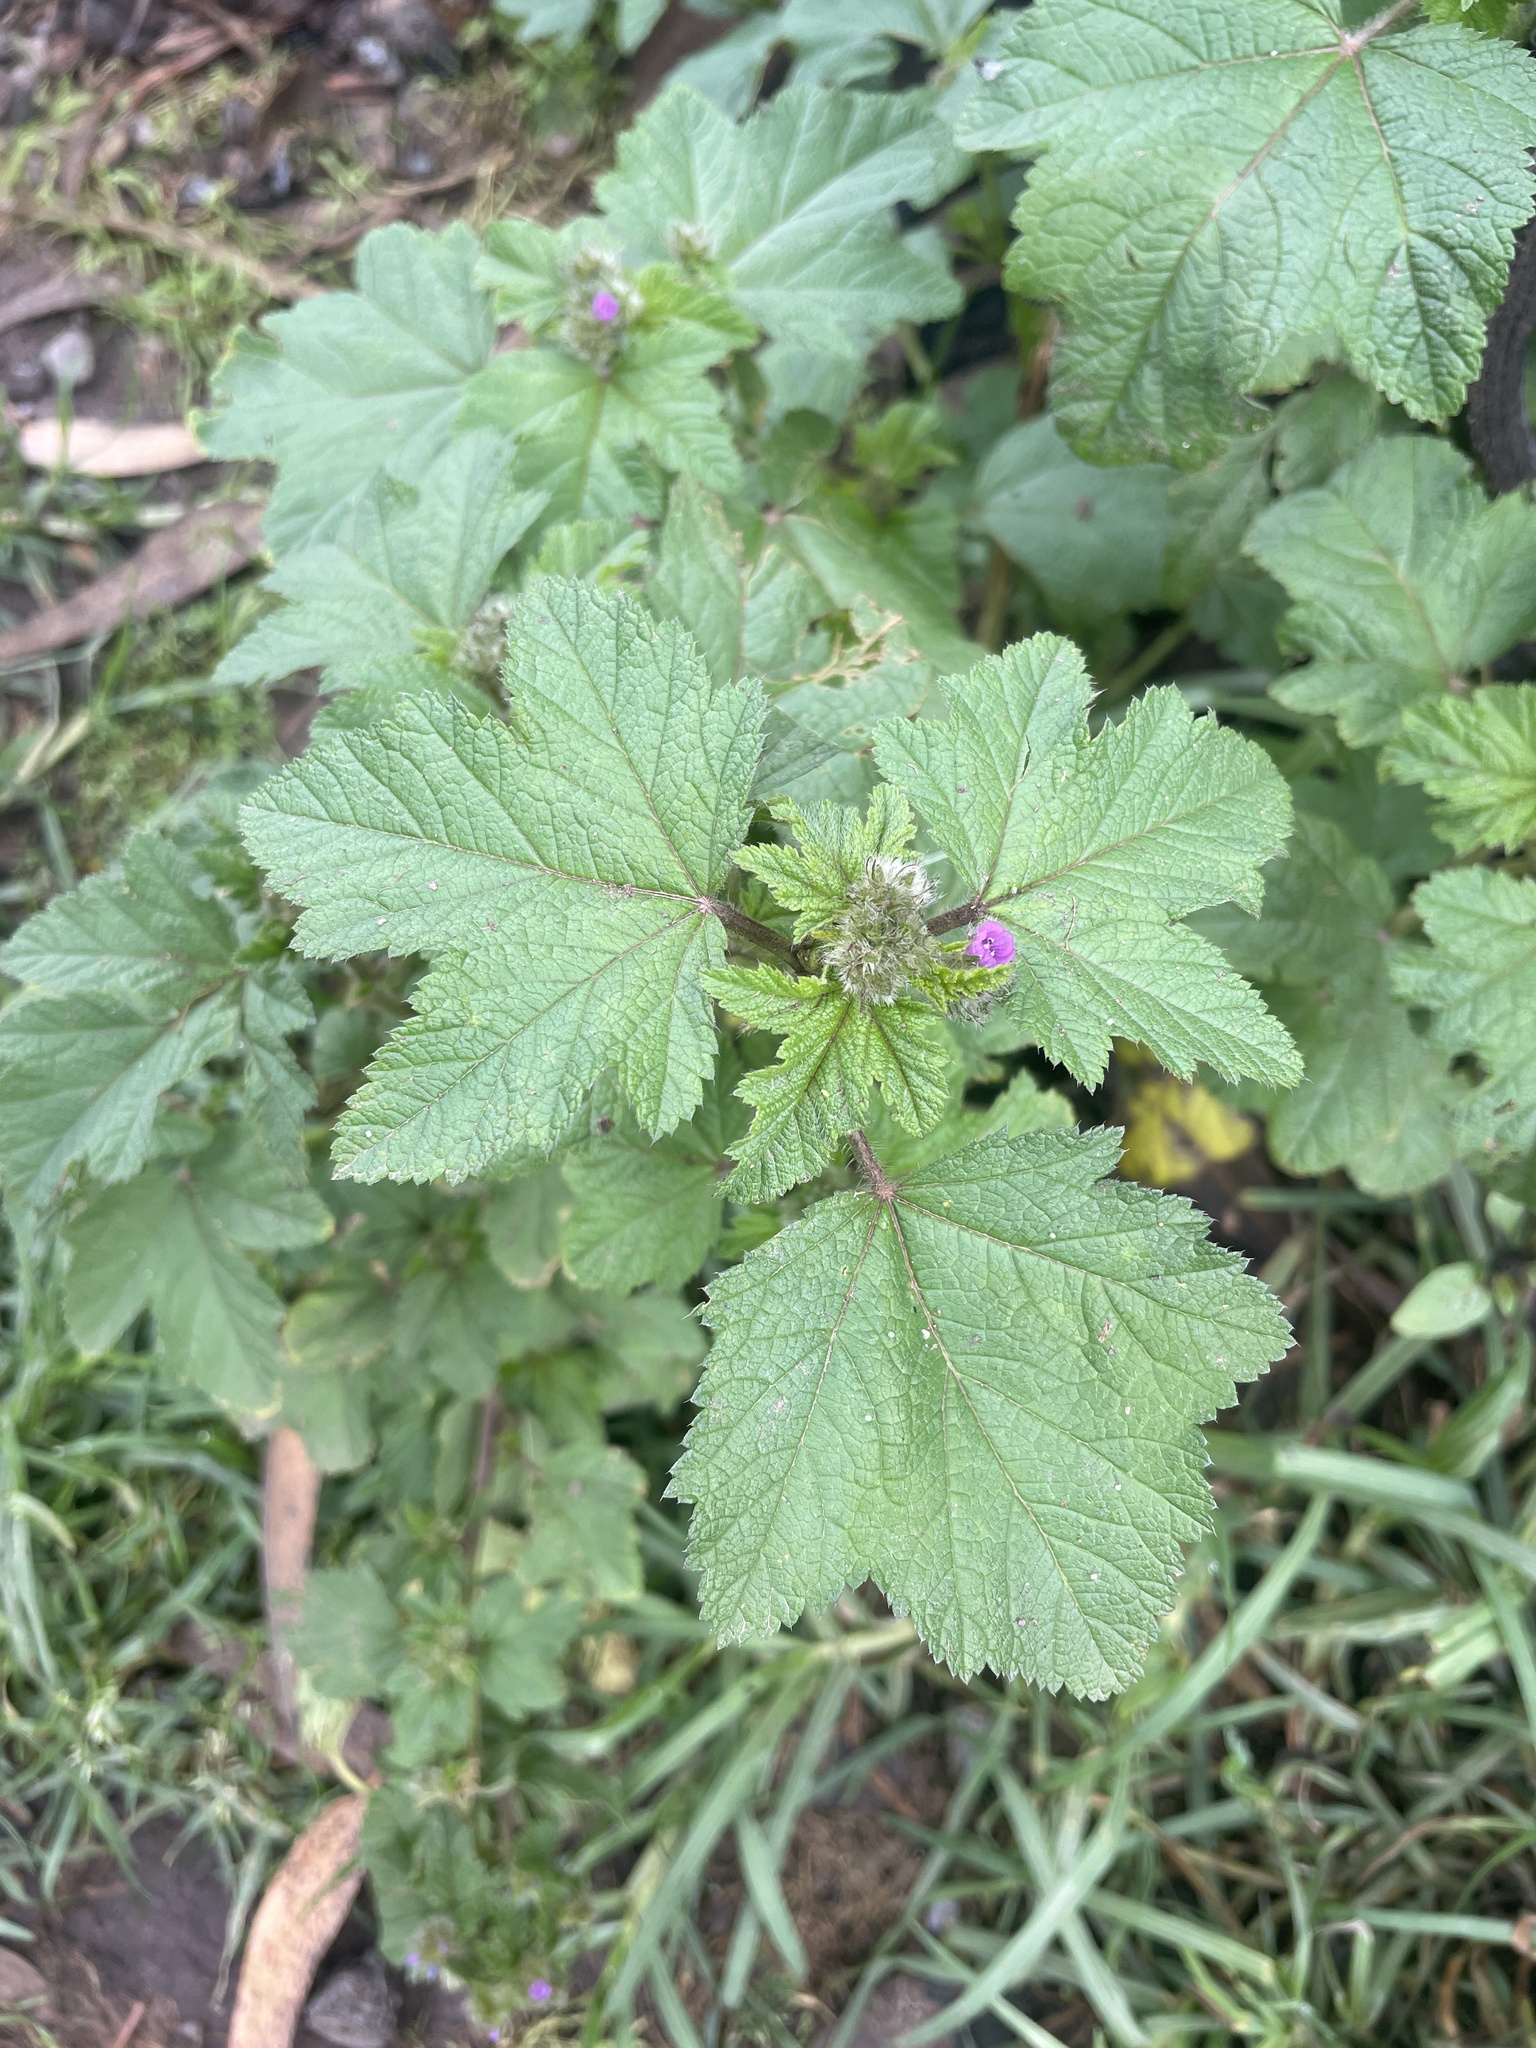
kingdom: Plantae
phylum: Tracheophyta
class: Magnoliopsida
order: Malvales
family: Malvaceae
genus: Fuertesimalva
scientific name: Fuertesimalva limensis
